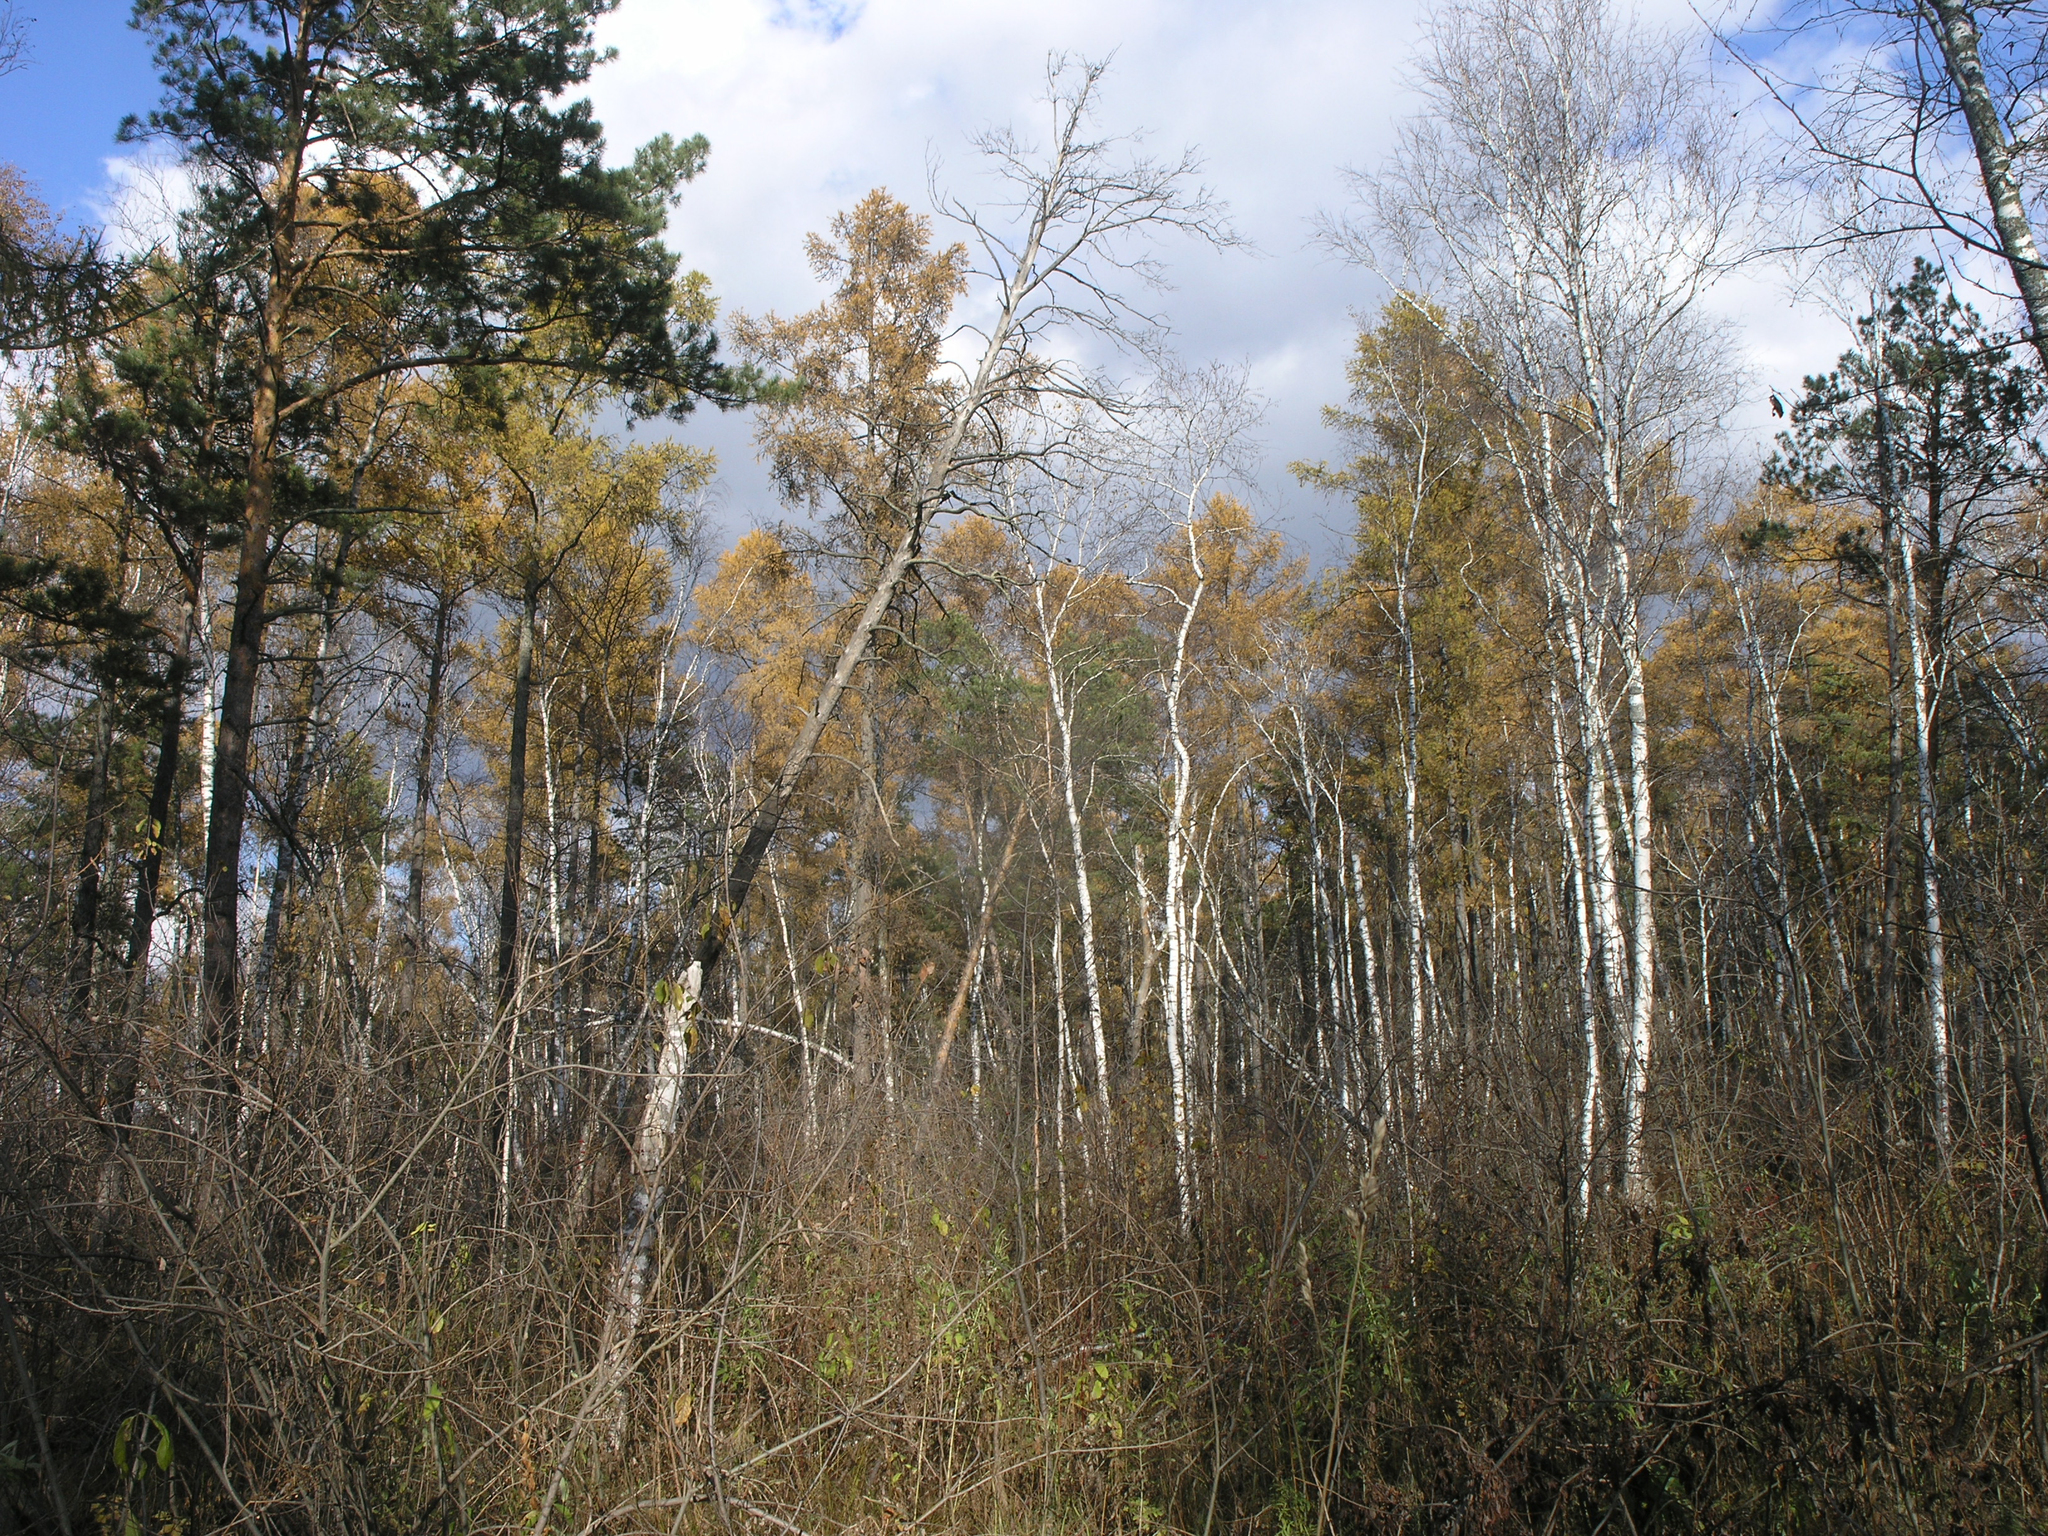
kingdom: Plantae
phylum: Tracheophyta
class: Pinopsida
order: Pinales
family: Pinaceae
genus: Pinus
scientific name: Pinus sylvestris
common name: Scots pine
